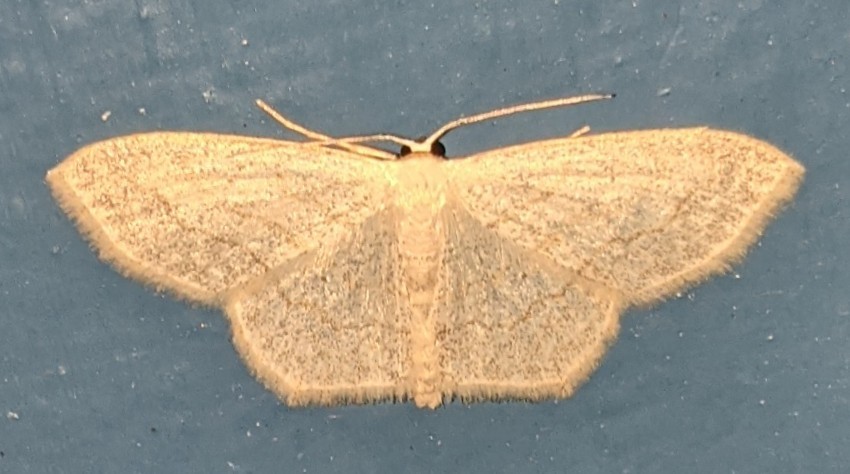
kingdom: Animalia
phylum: Arthropoda
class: Insecta
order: Lepidoptera
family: Geometridae
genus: Scopula
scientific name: Scopula limboundata
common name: Large lace border
